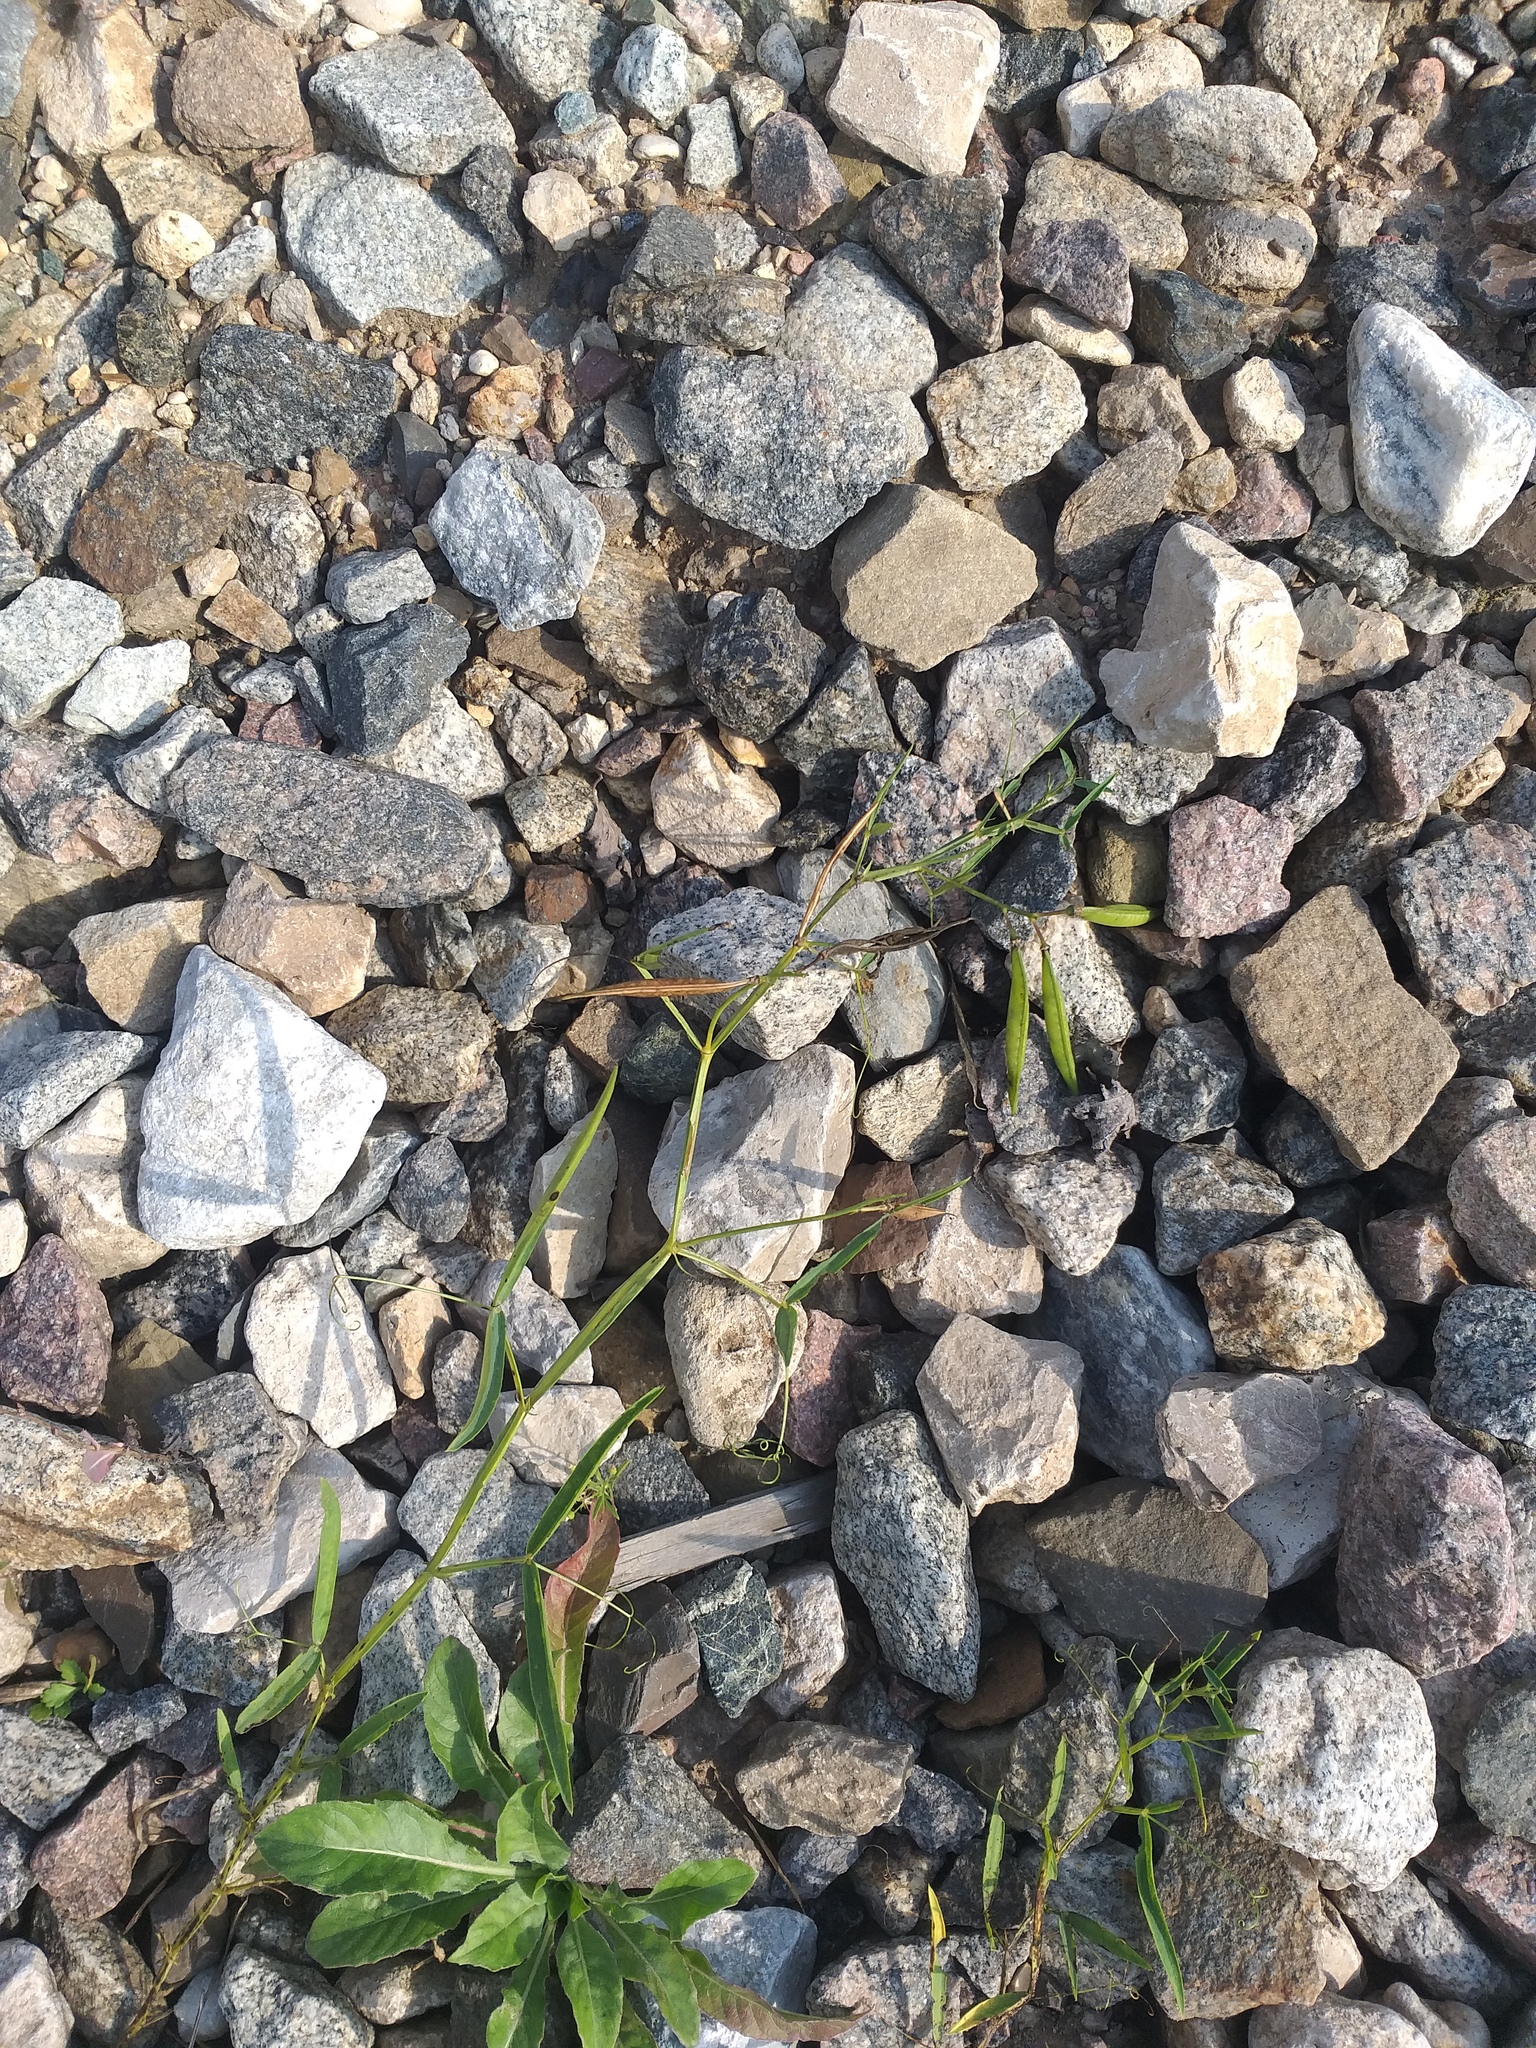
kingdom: Plantae
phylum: Tracheophyta
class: Magnoliopsida
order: Fabales
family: Fabaceae
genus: Lathyrus
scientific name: Lathyrus sylvestris
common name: Flat pea
